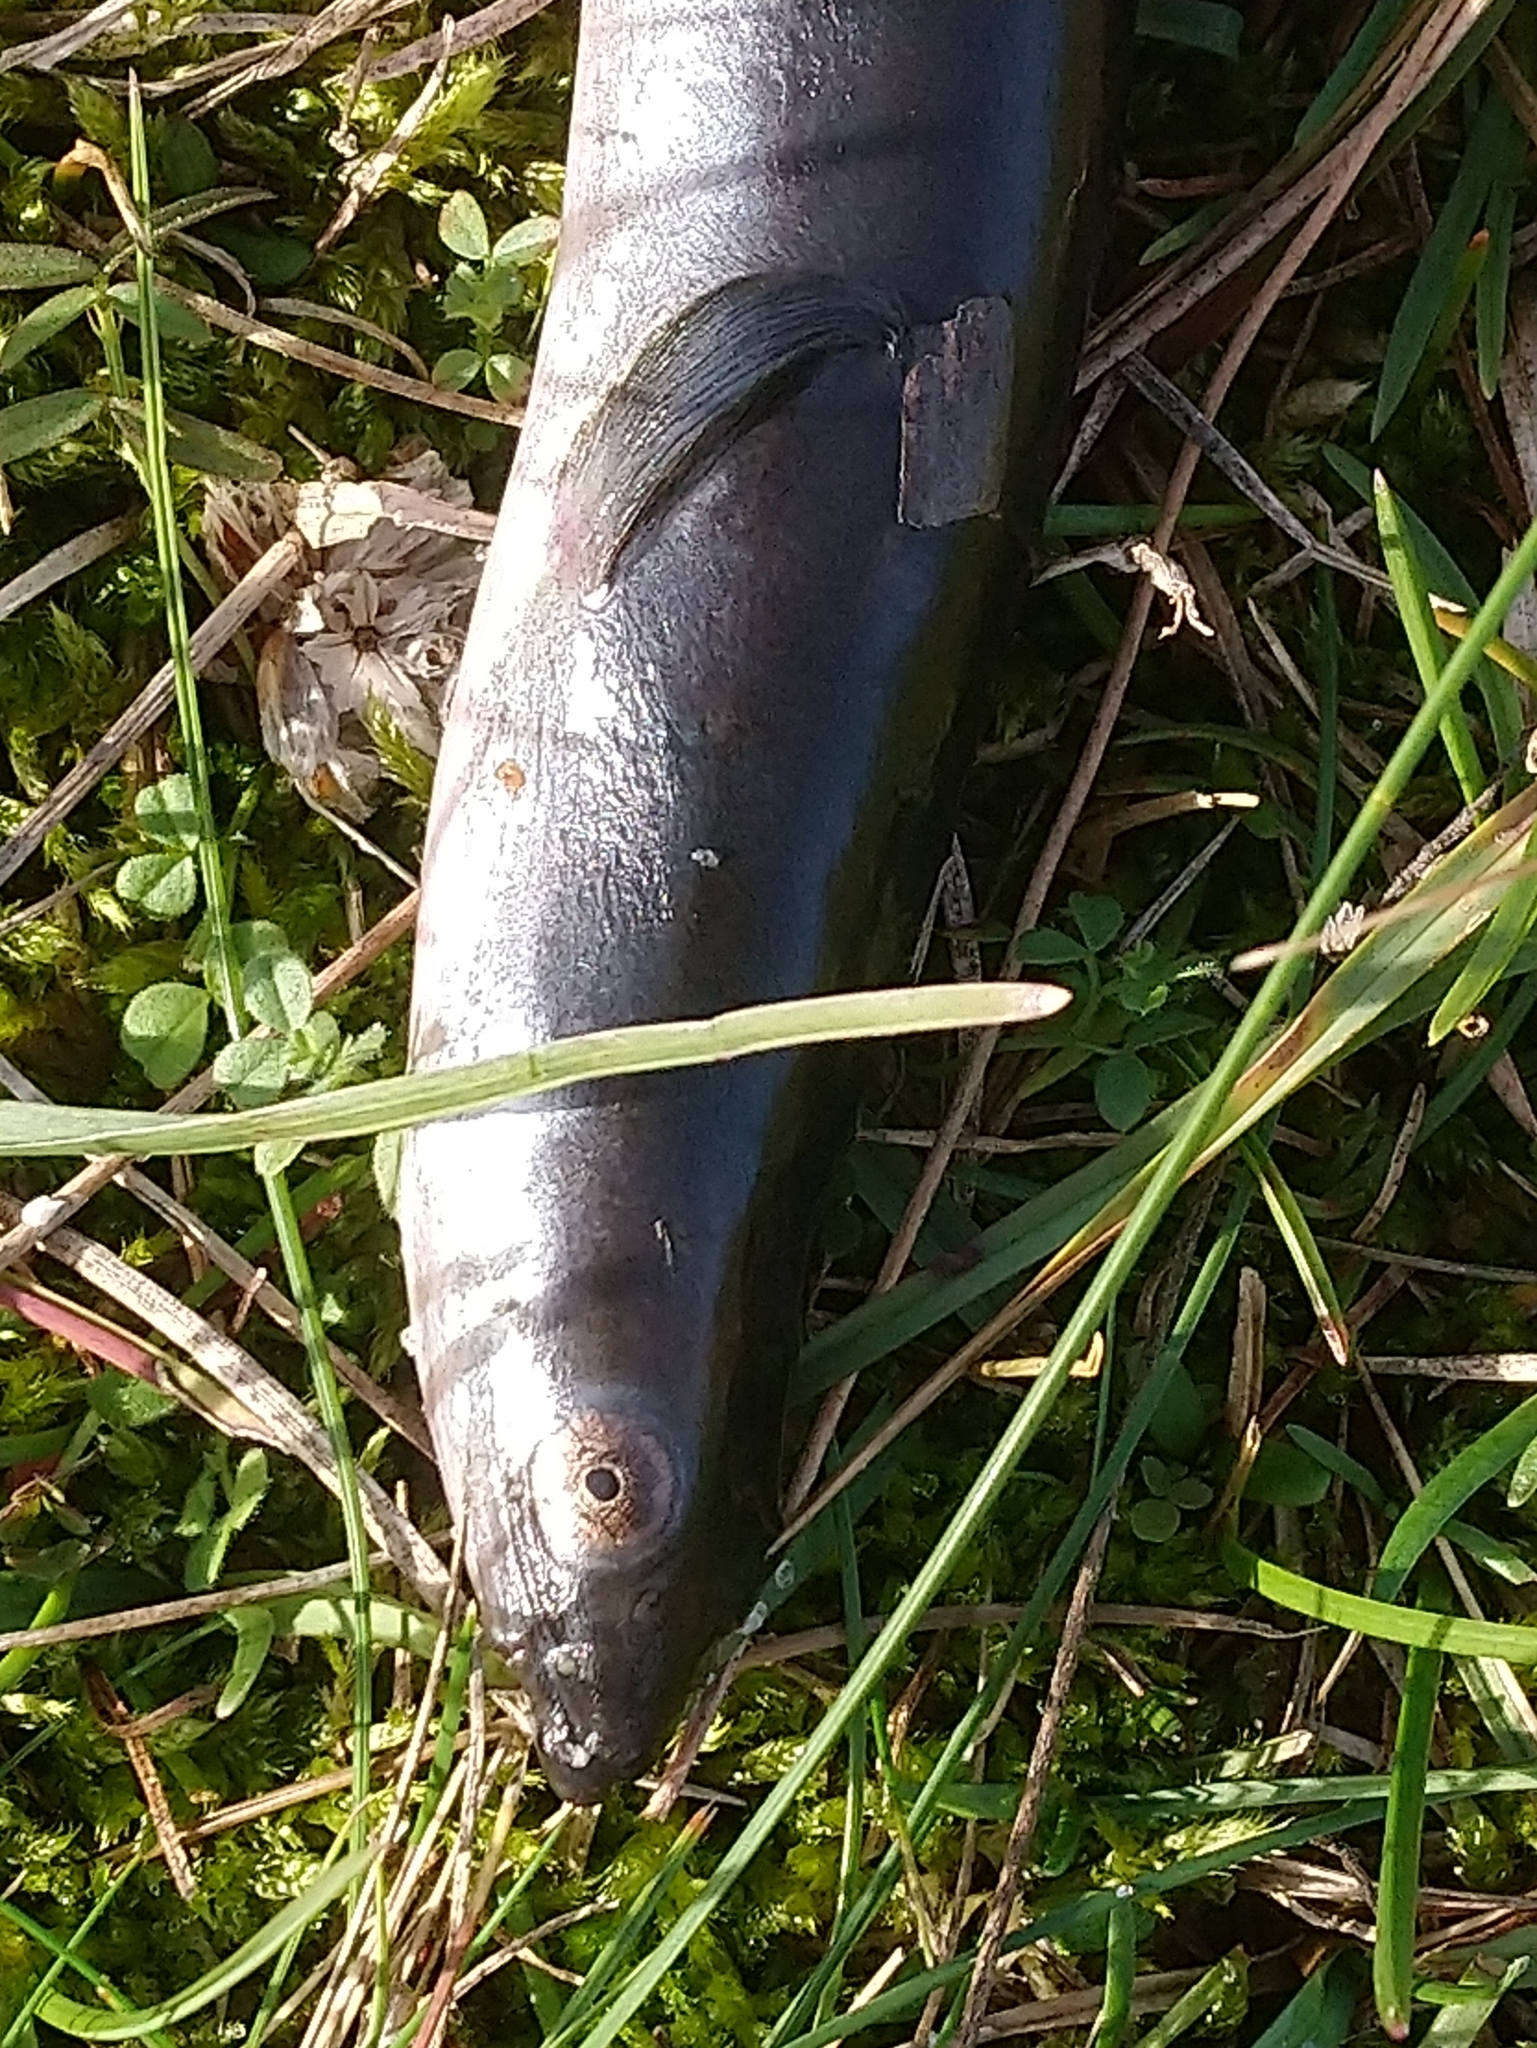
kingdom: Animalia
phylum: Chordata
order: Anguilliformes
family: Anguillidae
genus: Anguilla
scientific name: Anguilla anguilla
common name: European eel
